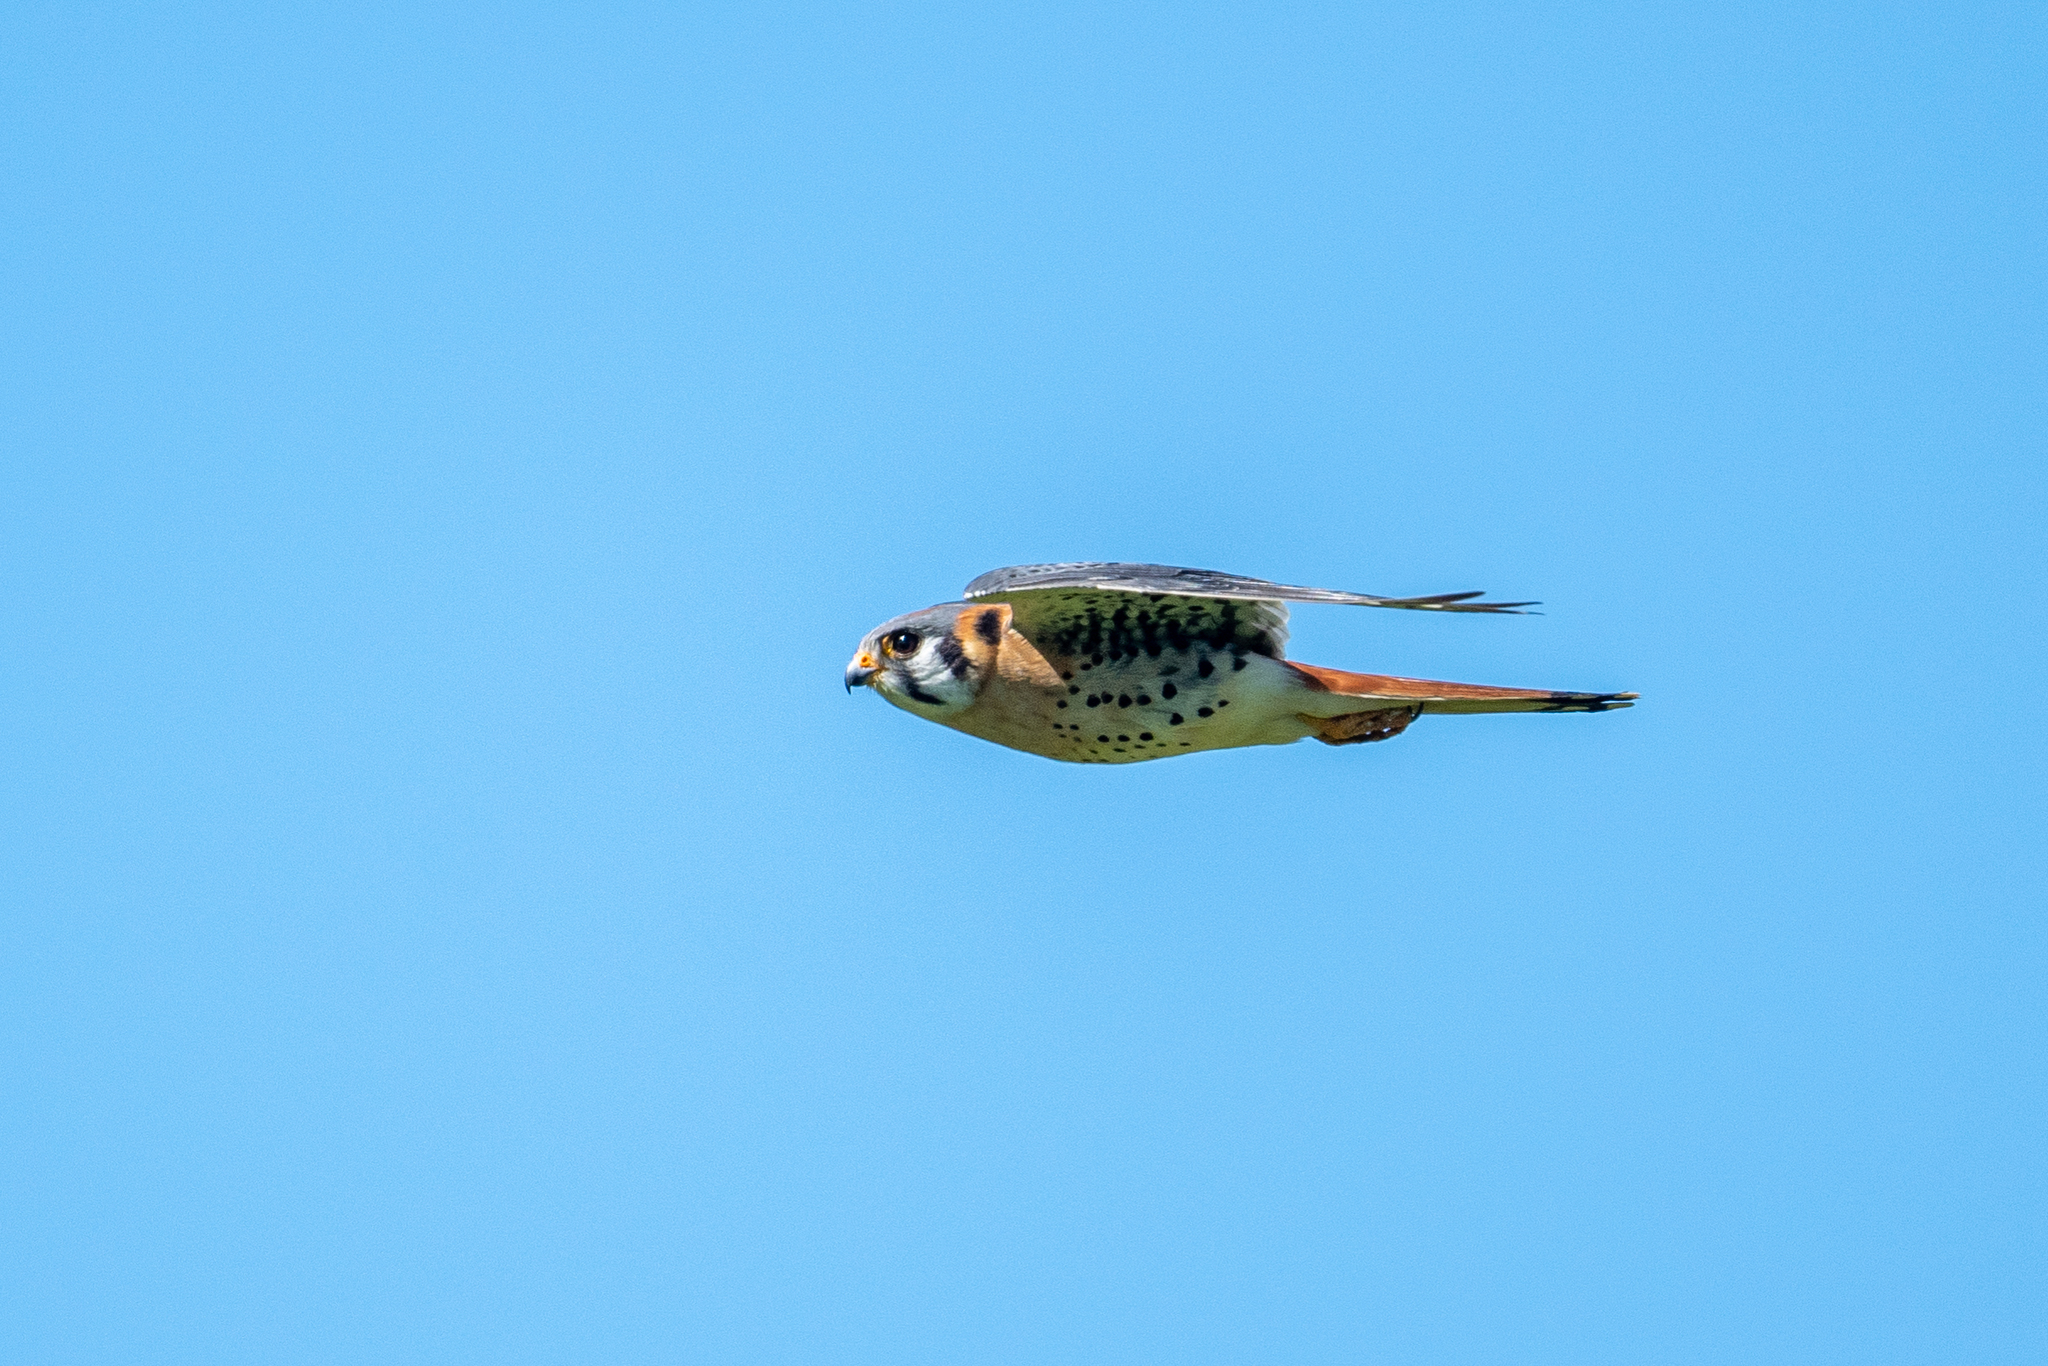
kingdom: Animalia
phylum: Chordata
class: Aves
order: Falconiformes
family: Falconidae
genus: Falco
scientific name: Falco sparverius
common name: American kestrel
